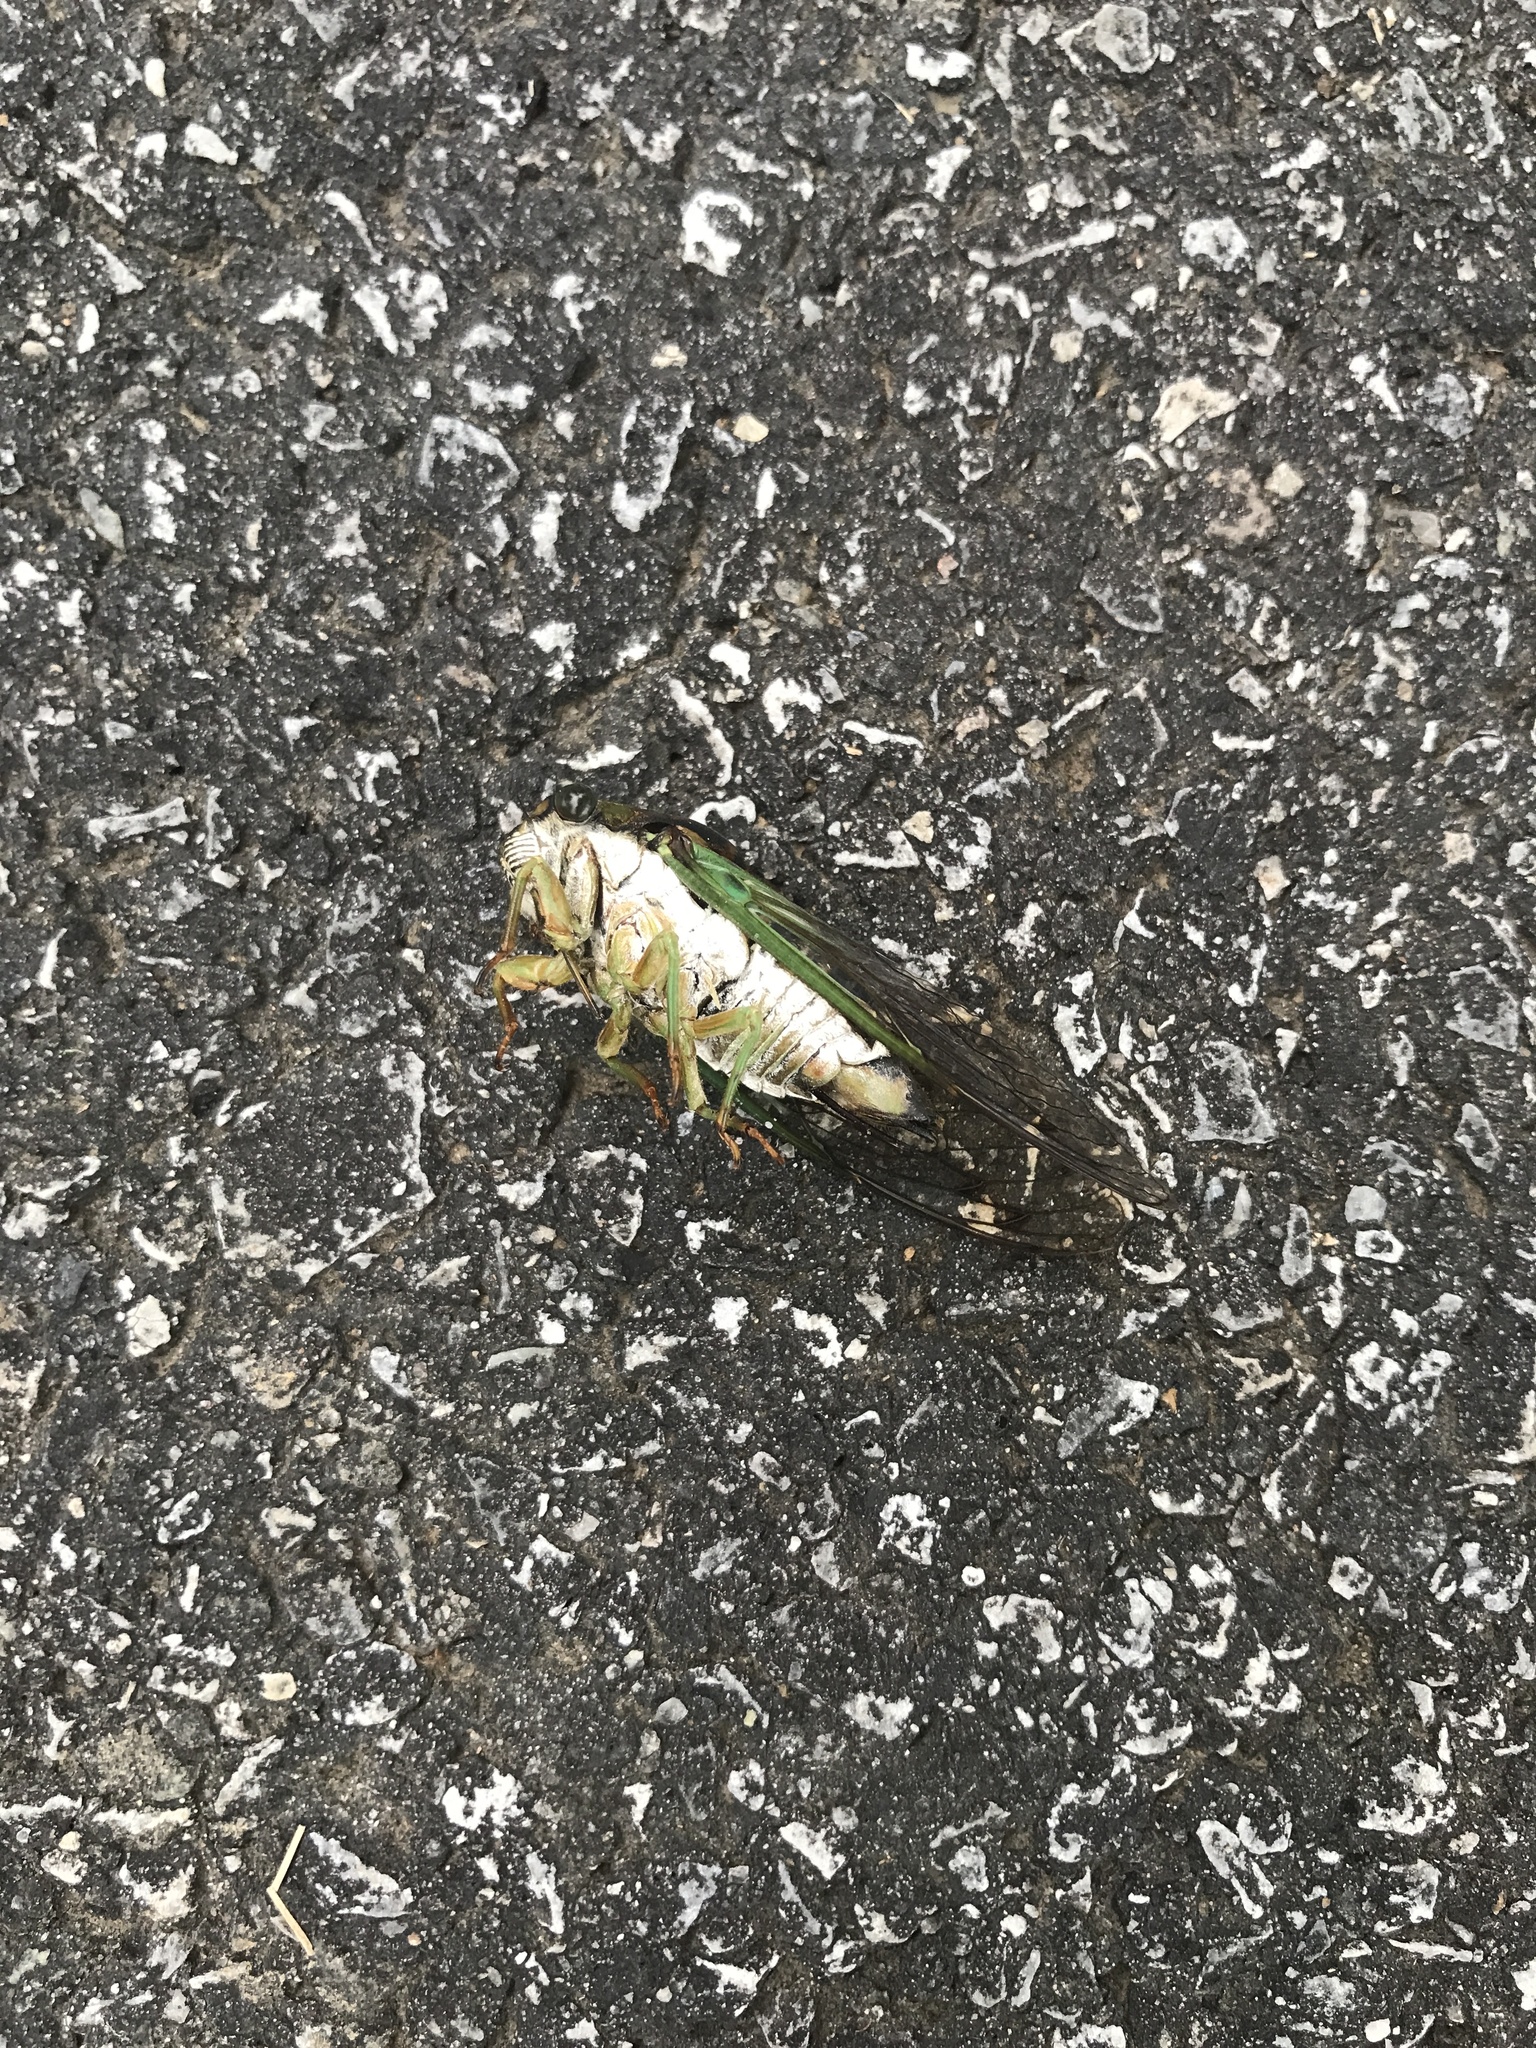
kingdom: Animalia
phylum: Arthropoda
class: Insecta
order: Hemiptera
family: Cicadidae
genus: Neotibicen
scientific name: Neotibicen tibicen
